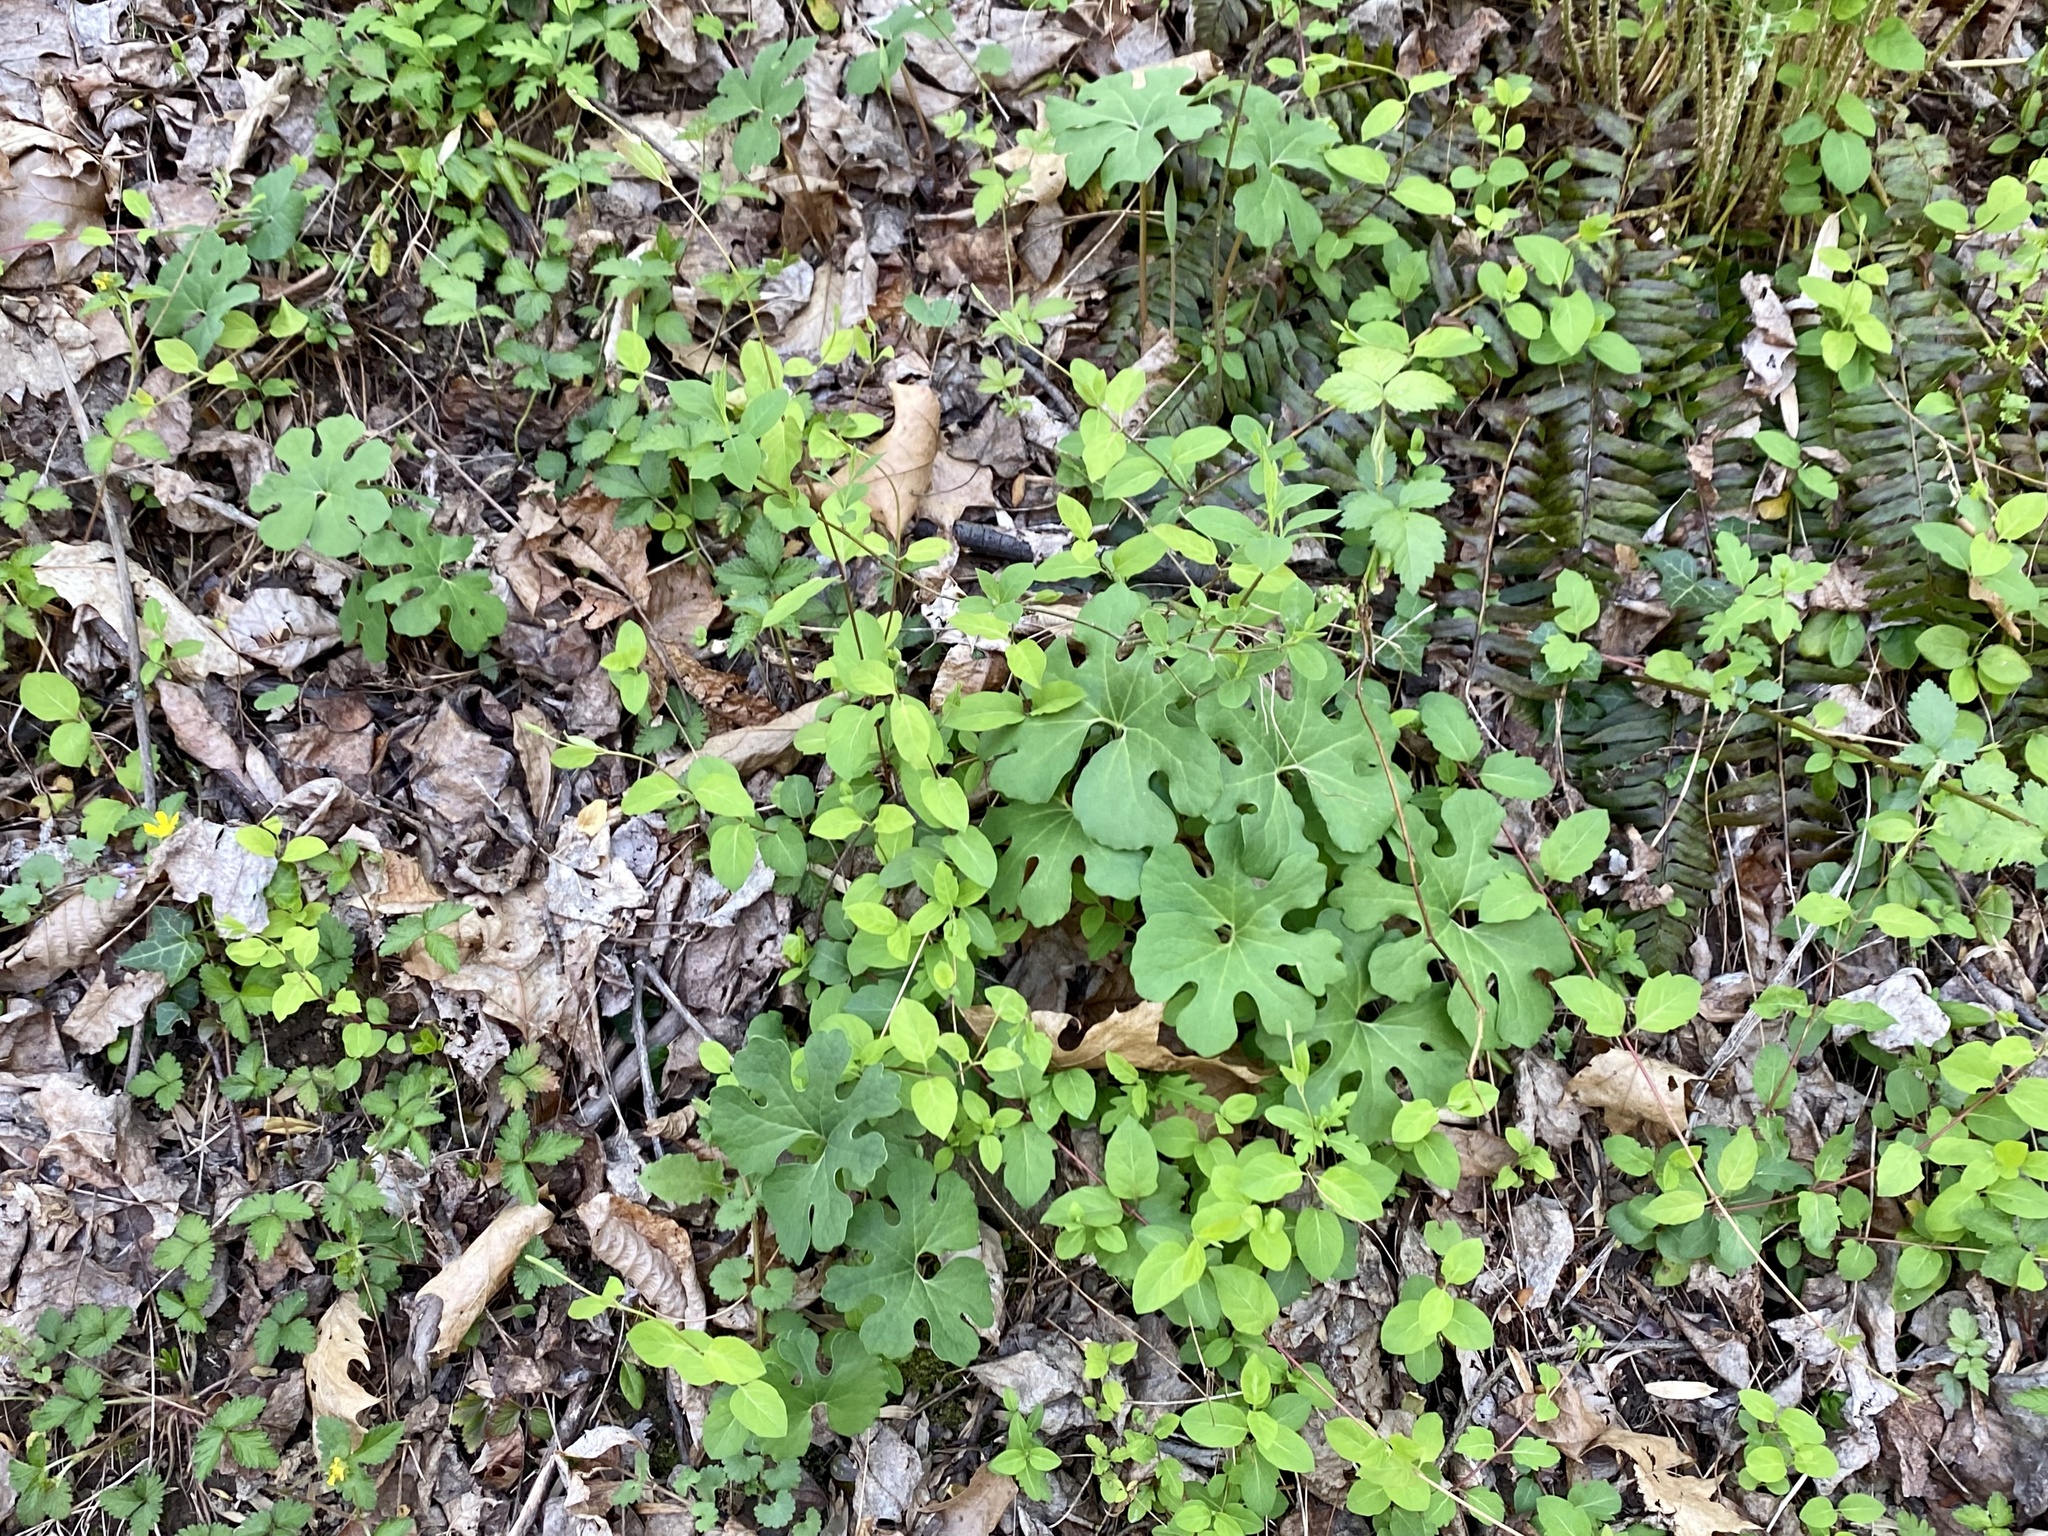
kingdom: Plantae
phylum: Tracheophyta
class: Magnoliopsida
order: Ranunculales
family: Papaveraceae
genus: Sanguinaria
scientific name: Sanguinaria canadensis
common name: Bloodroot
